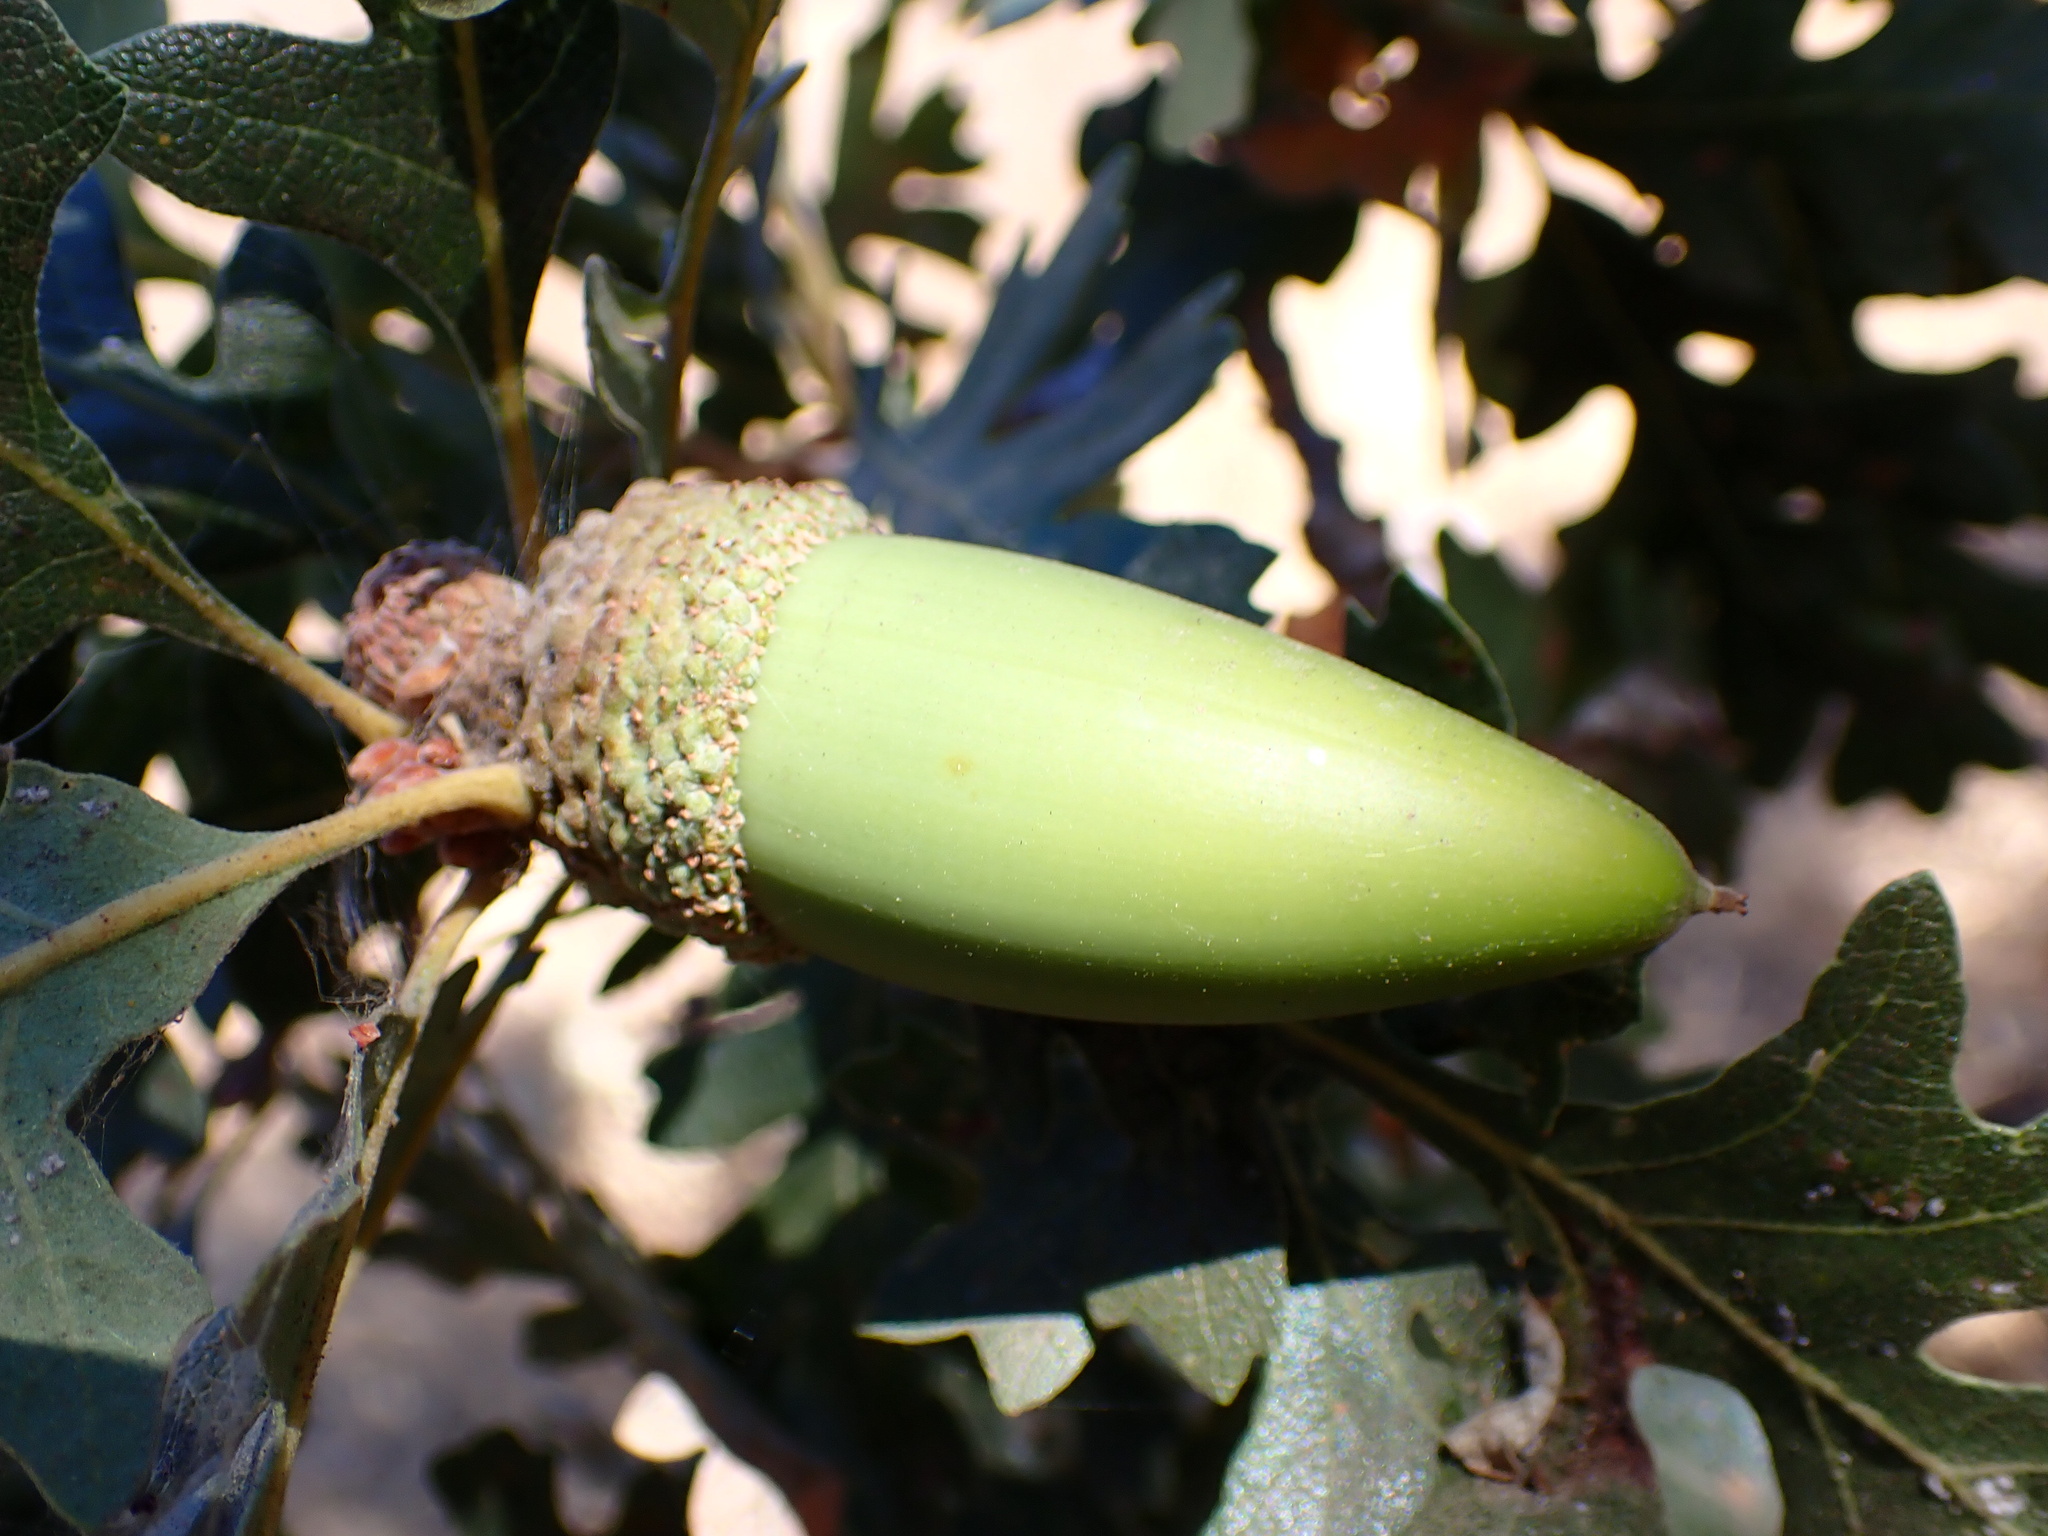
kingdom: Plantae
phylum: Tracheophyta
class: Magnoliopsida
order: Fagales
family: Fagaceae
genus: Quercus
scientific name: Quercus lobata
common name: Valley oak
